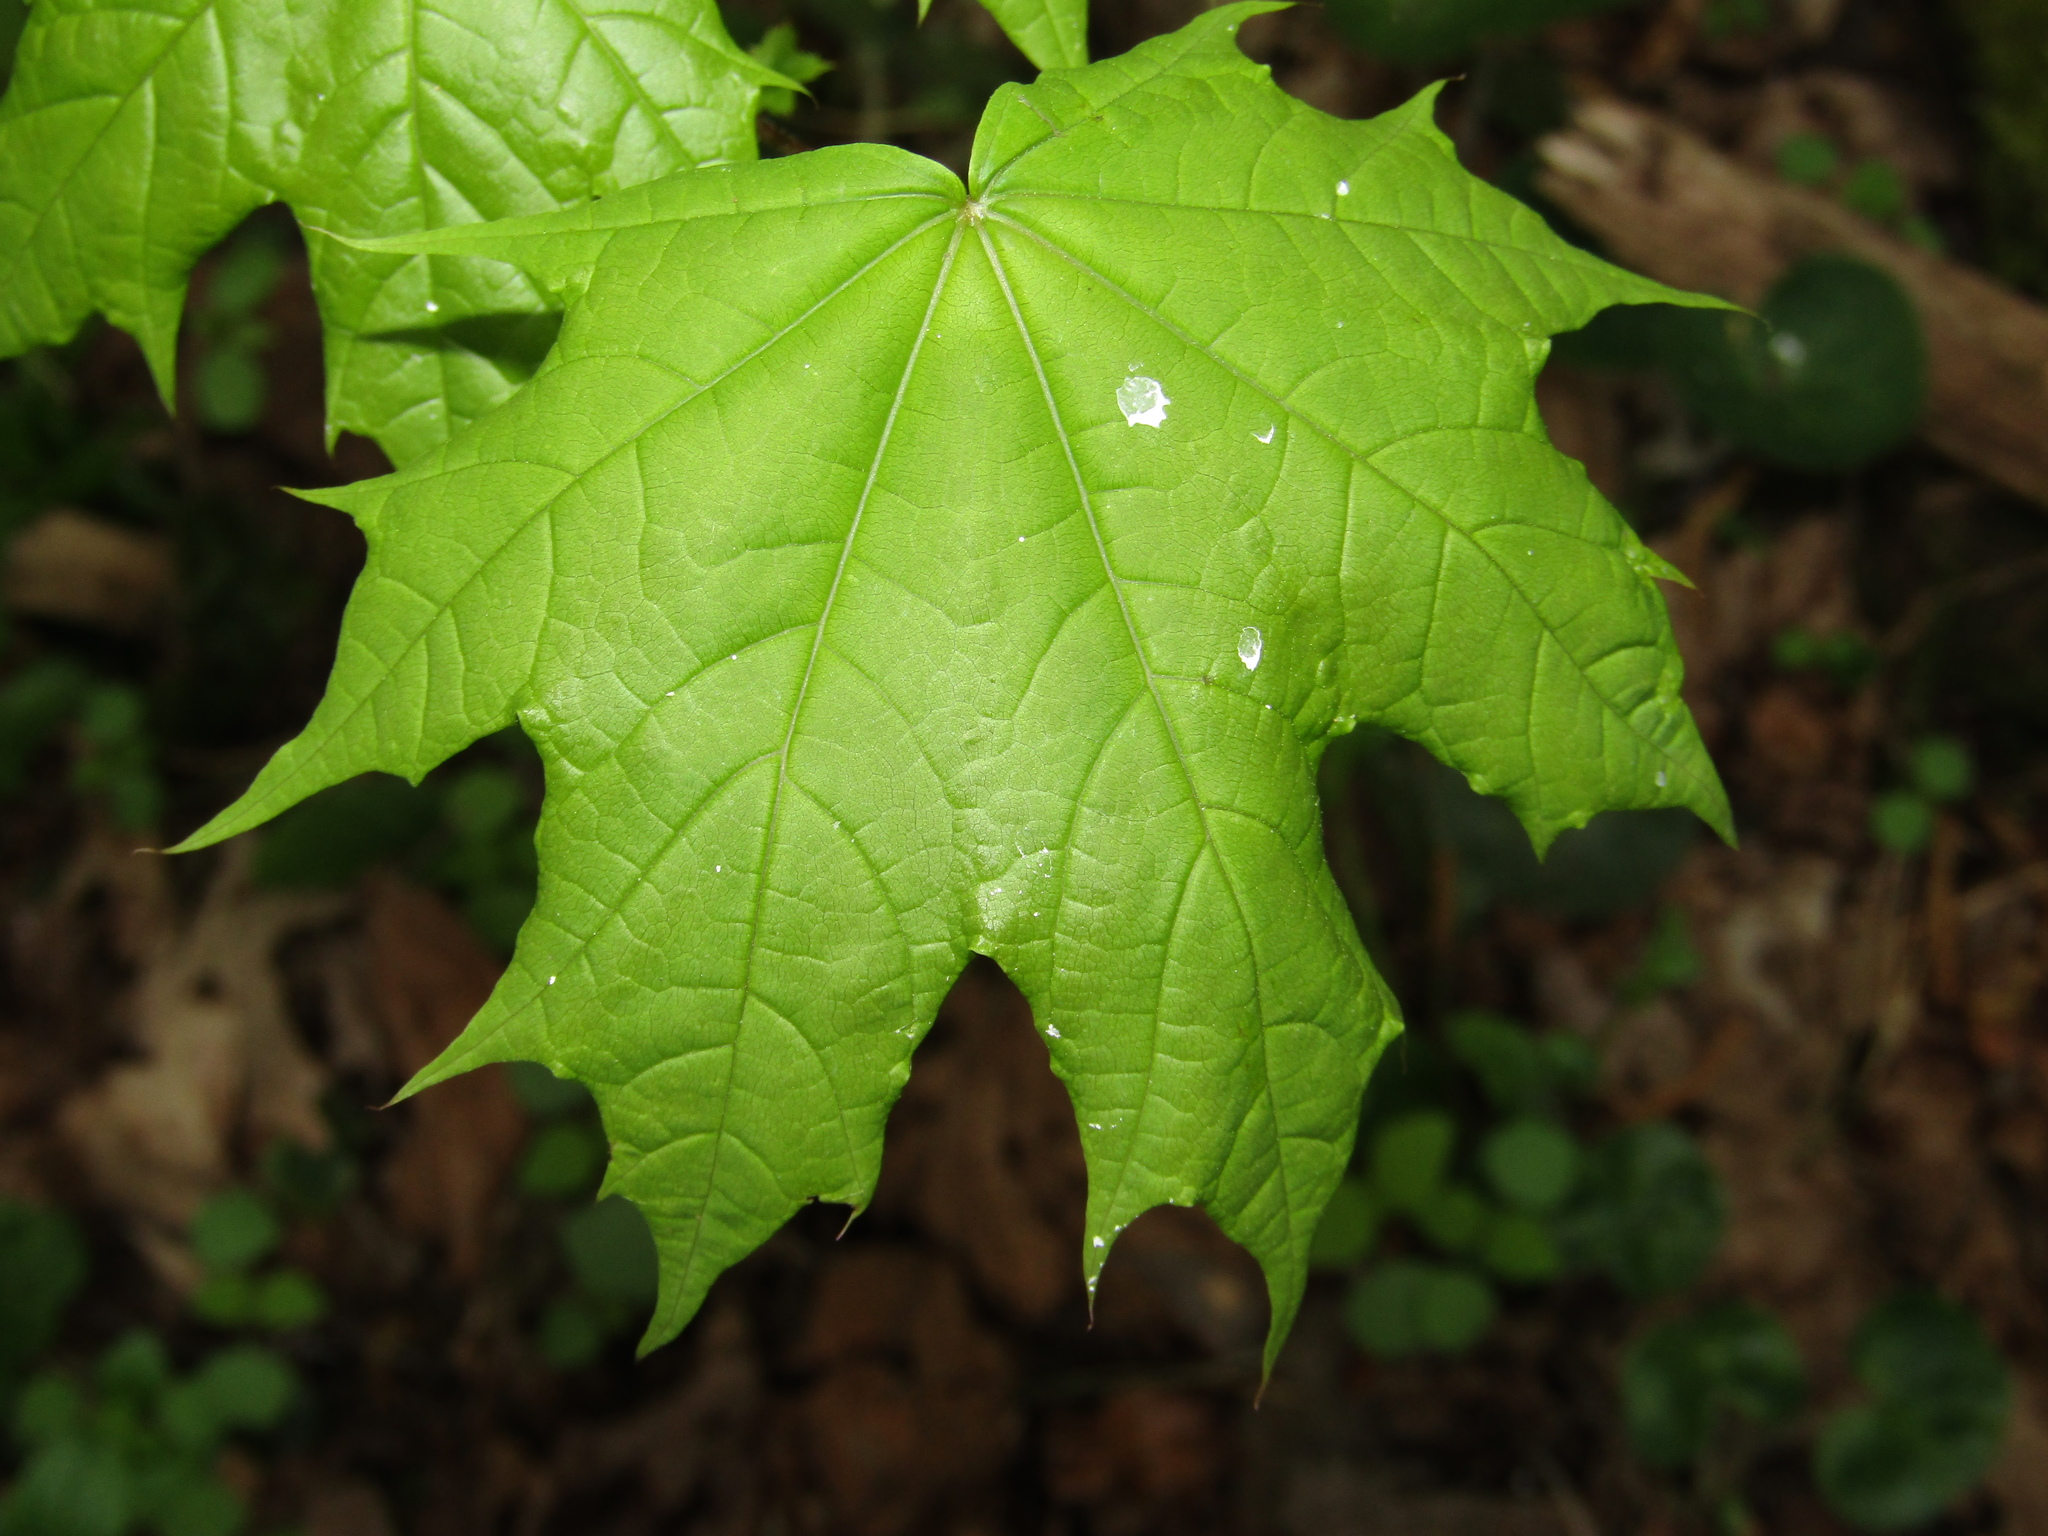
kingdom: Plantae
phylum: Tracheophyta
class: Magnoliopsida
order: Sapindales
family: Sapindaceae
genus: Acer
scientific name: Acer platanoides
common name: Norway maple
